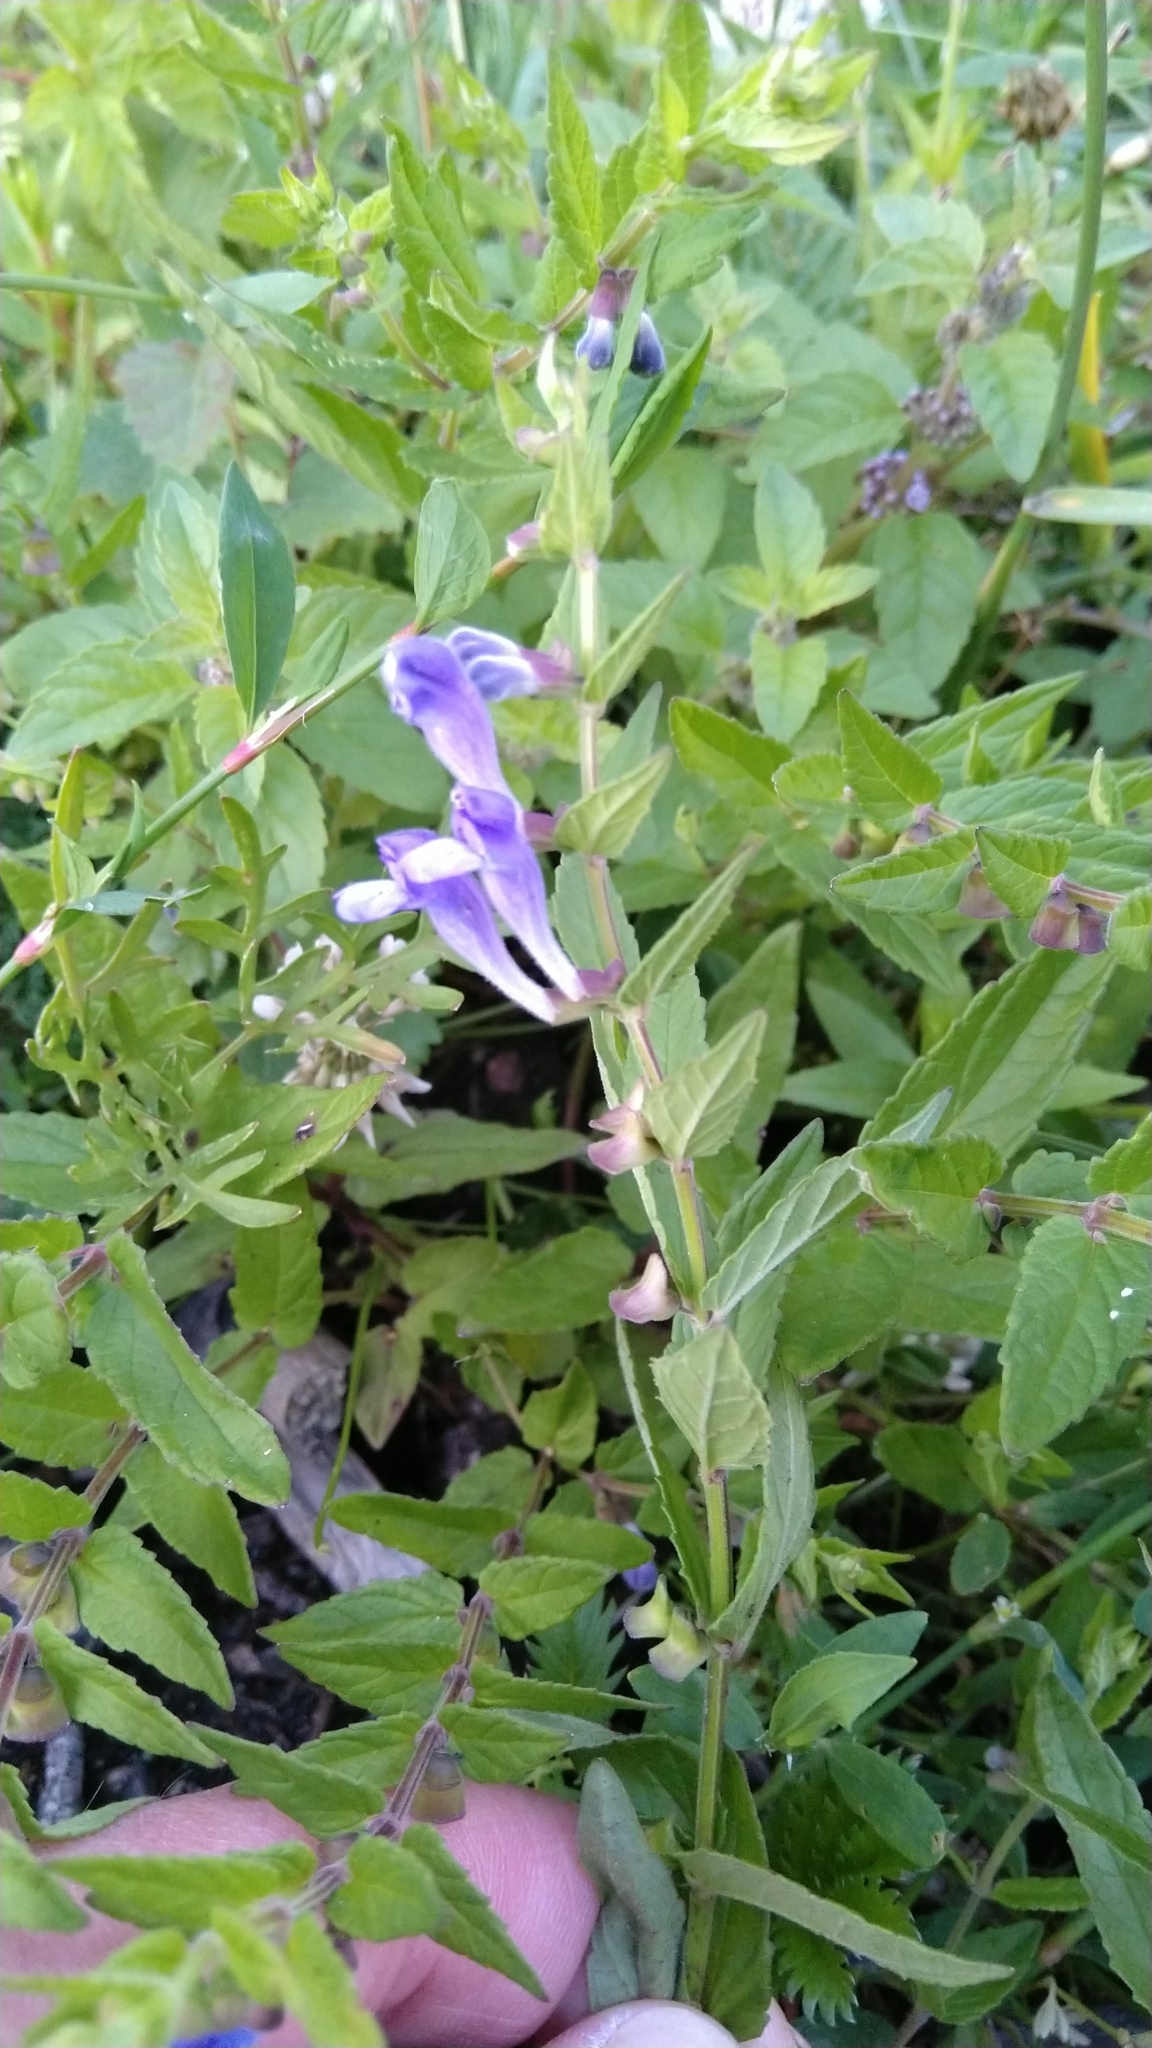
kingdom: Plantae
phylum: Tracheophyta
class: Magnoliopsida
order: Lamiales
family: Lamiaceae
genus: Scutellaria
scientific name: Scutellaria galericulata
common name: Skullcap
